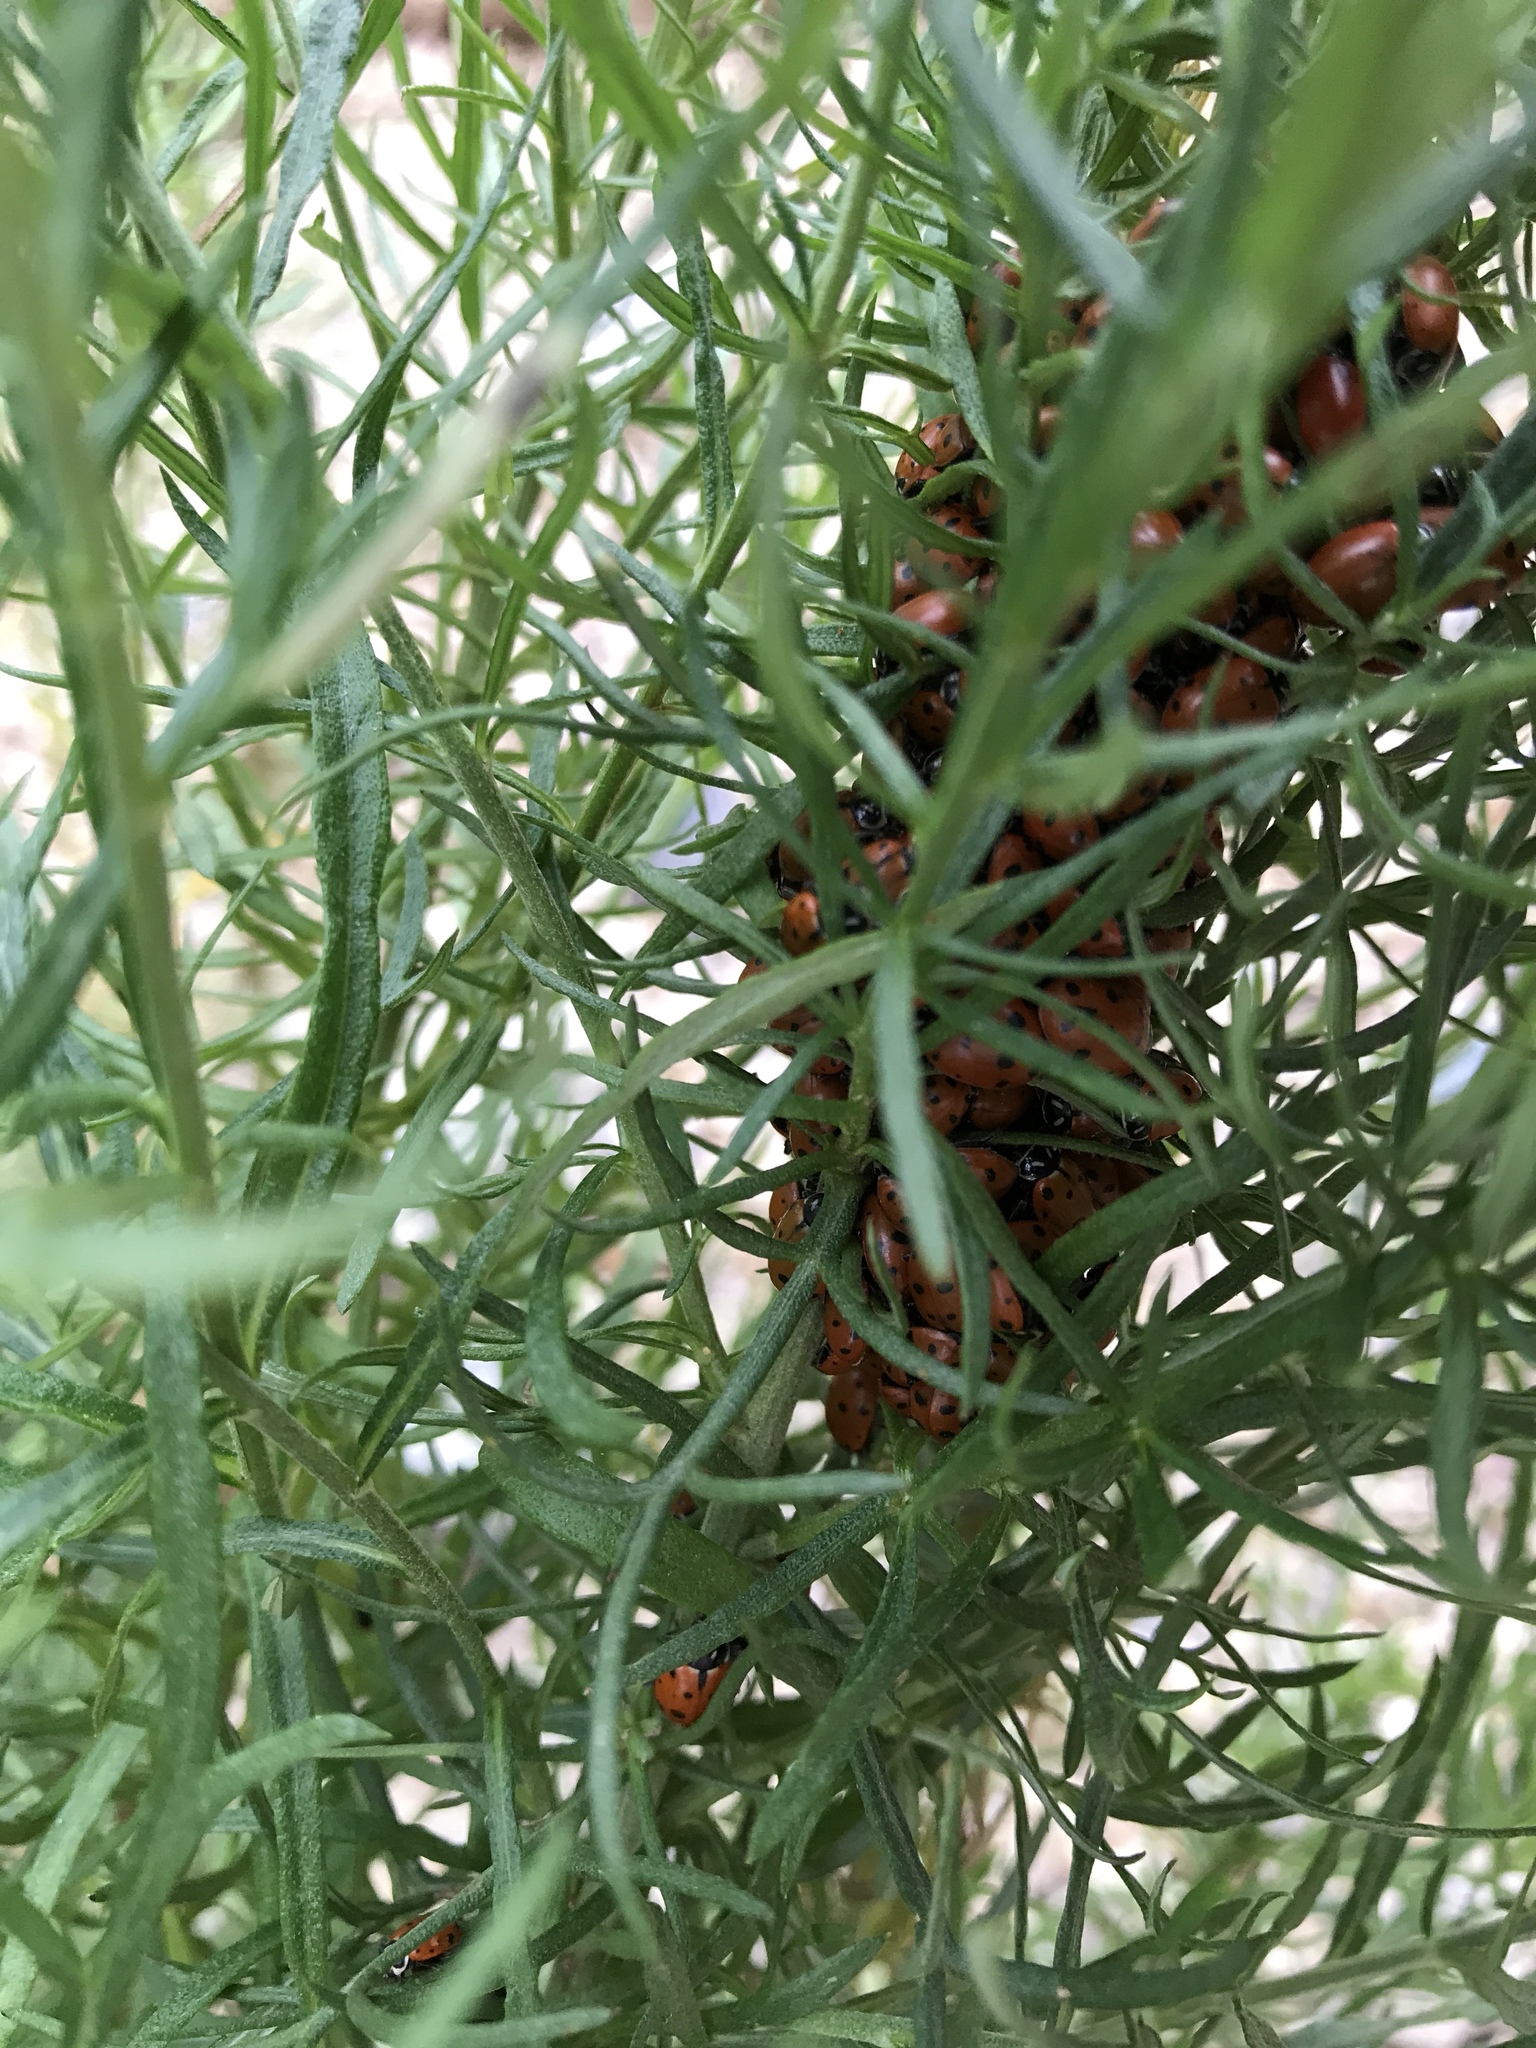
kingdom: Animalia
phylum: Arthropoda
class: Insecta
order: Coleoptera
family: Coccinellidae
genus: Hippodamia
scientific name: Hippodamia convergens
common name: Convergent lady beetle
